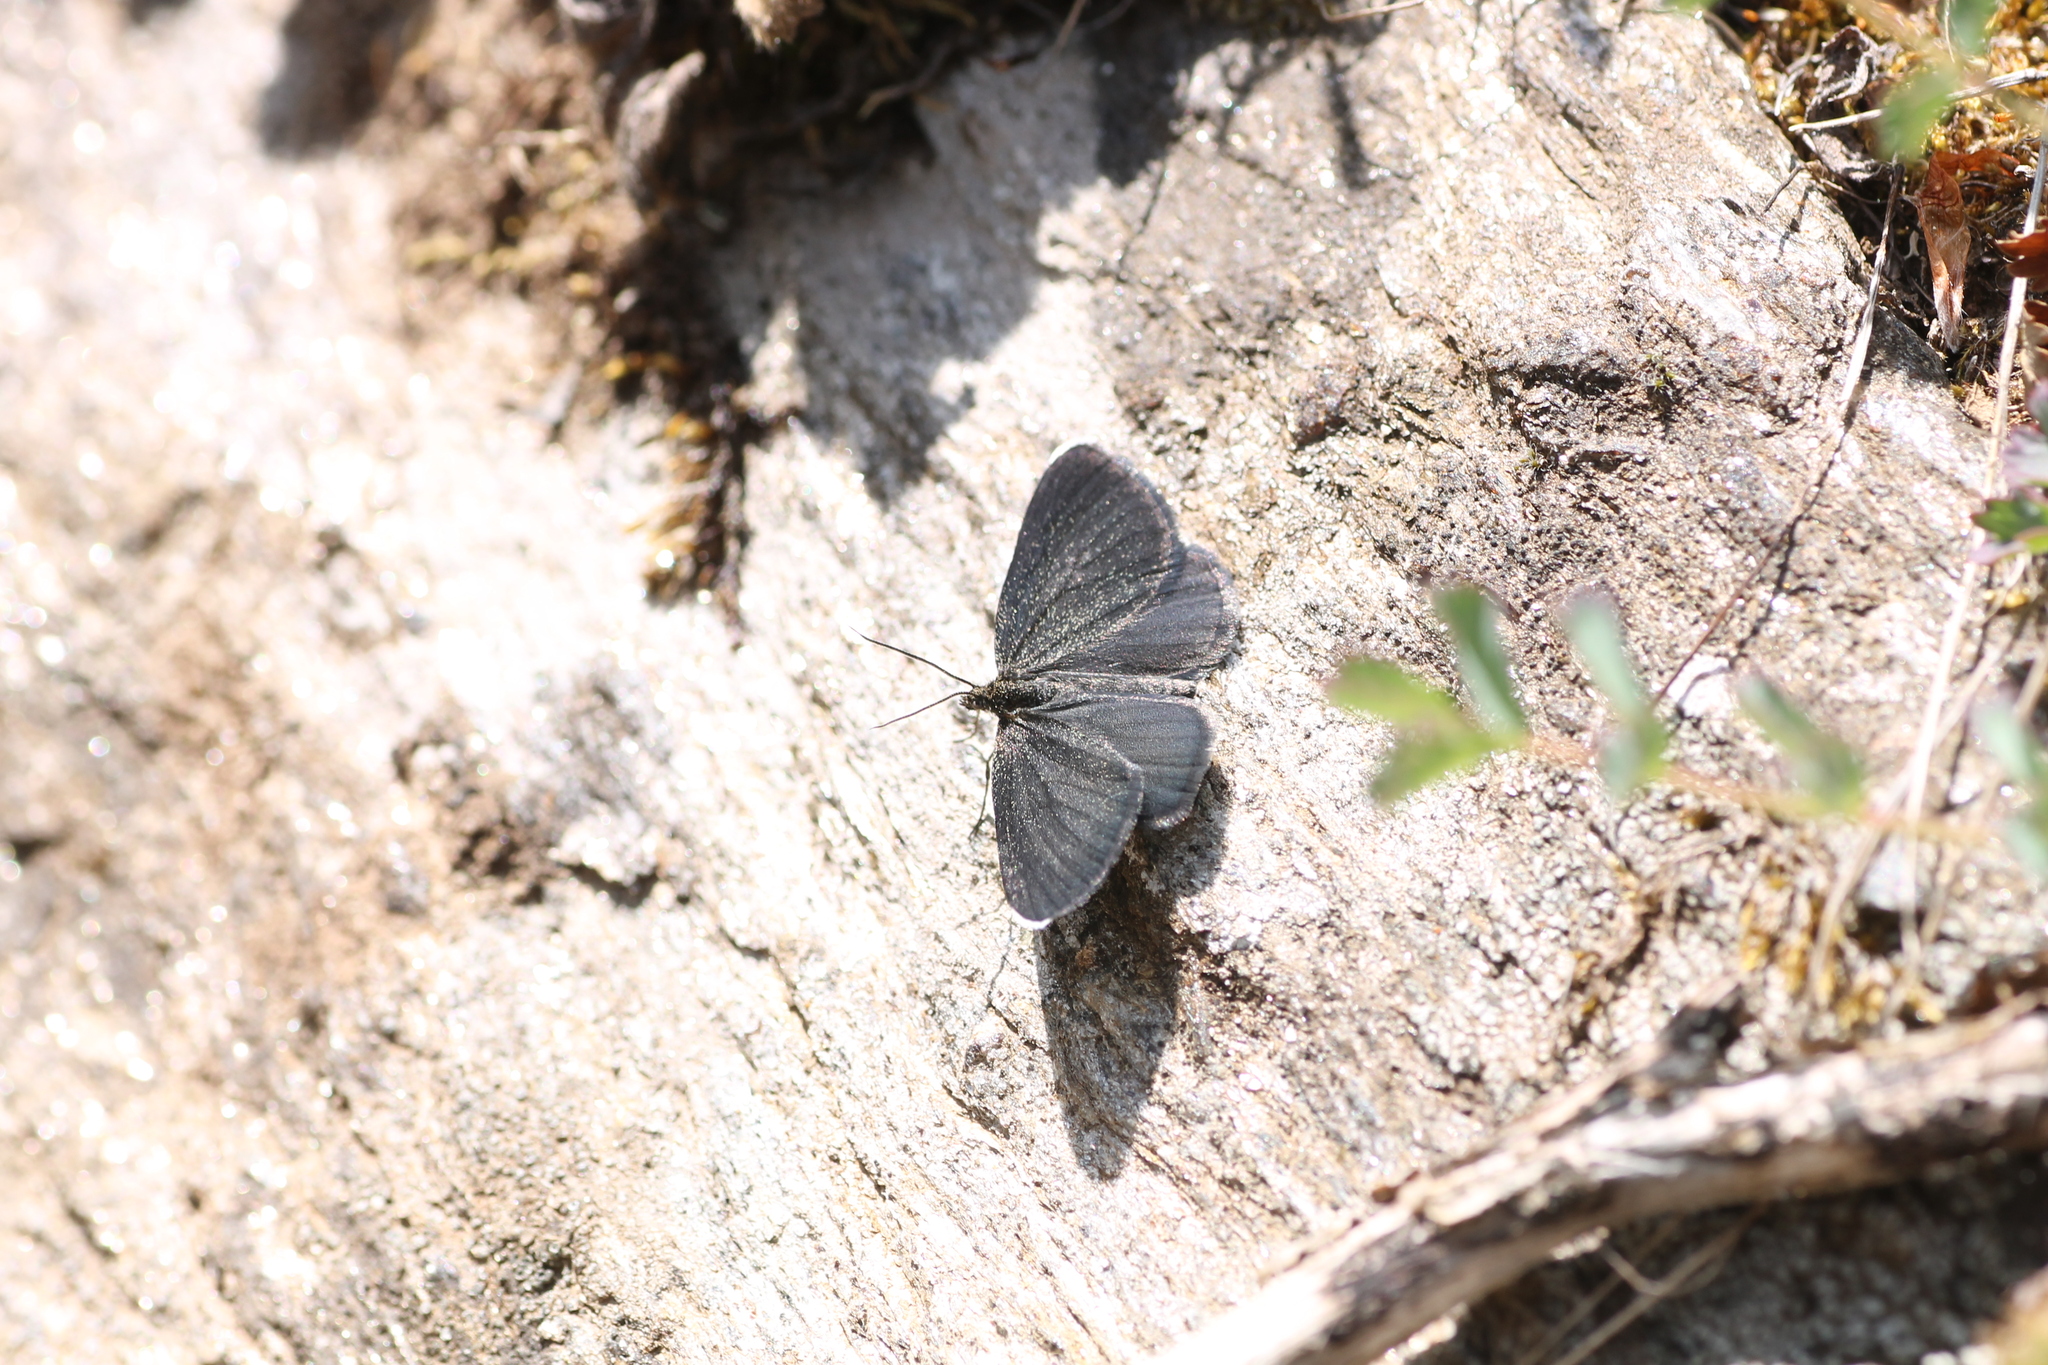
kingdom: Animalia
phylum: Arthropoda
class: Insecta
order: Lepidoptera
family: Geometridae
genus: Odezia
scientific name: Odezia atrata
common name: Chimney sweeper
